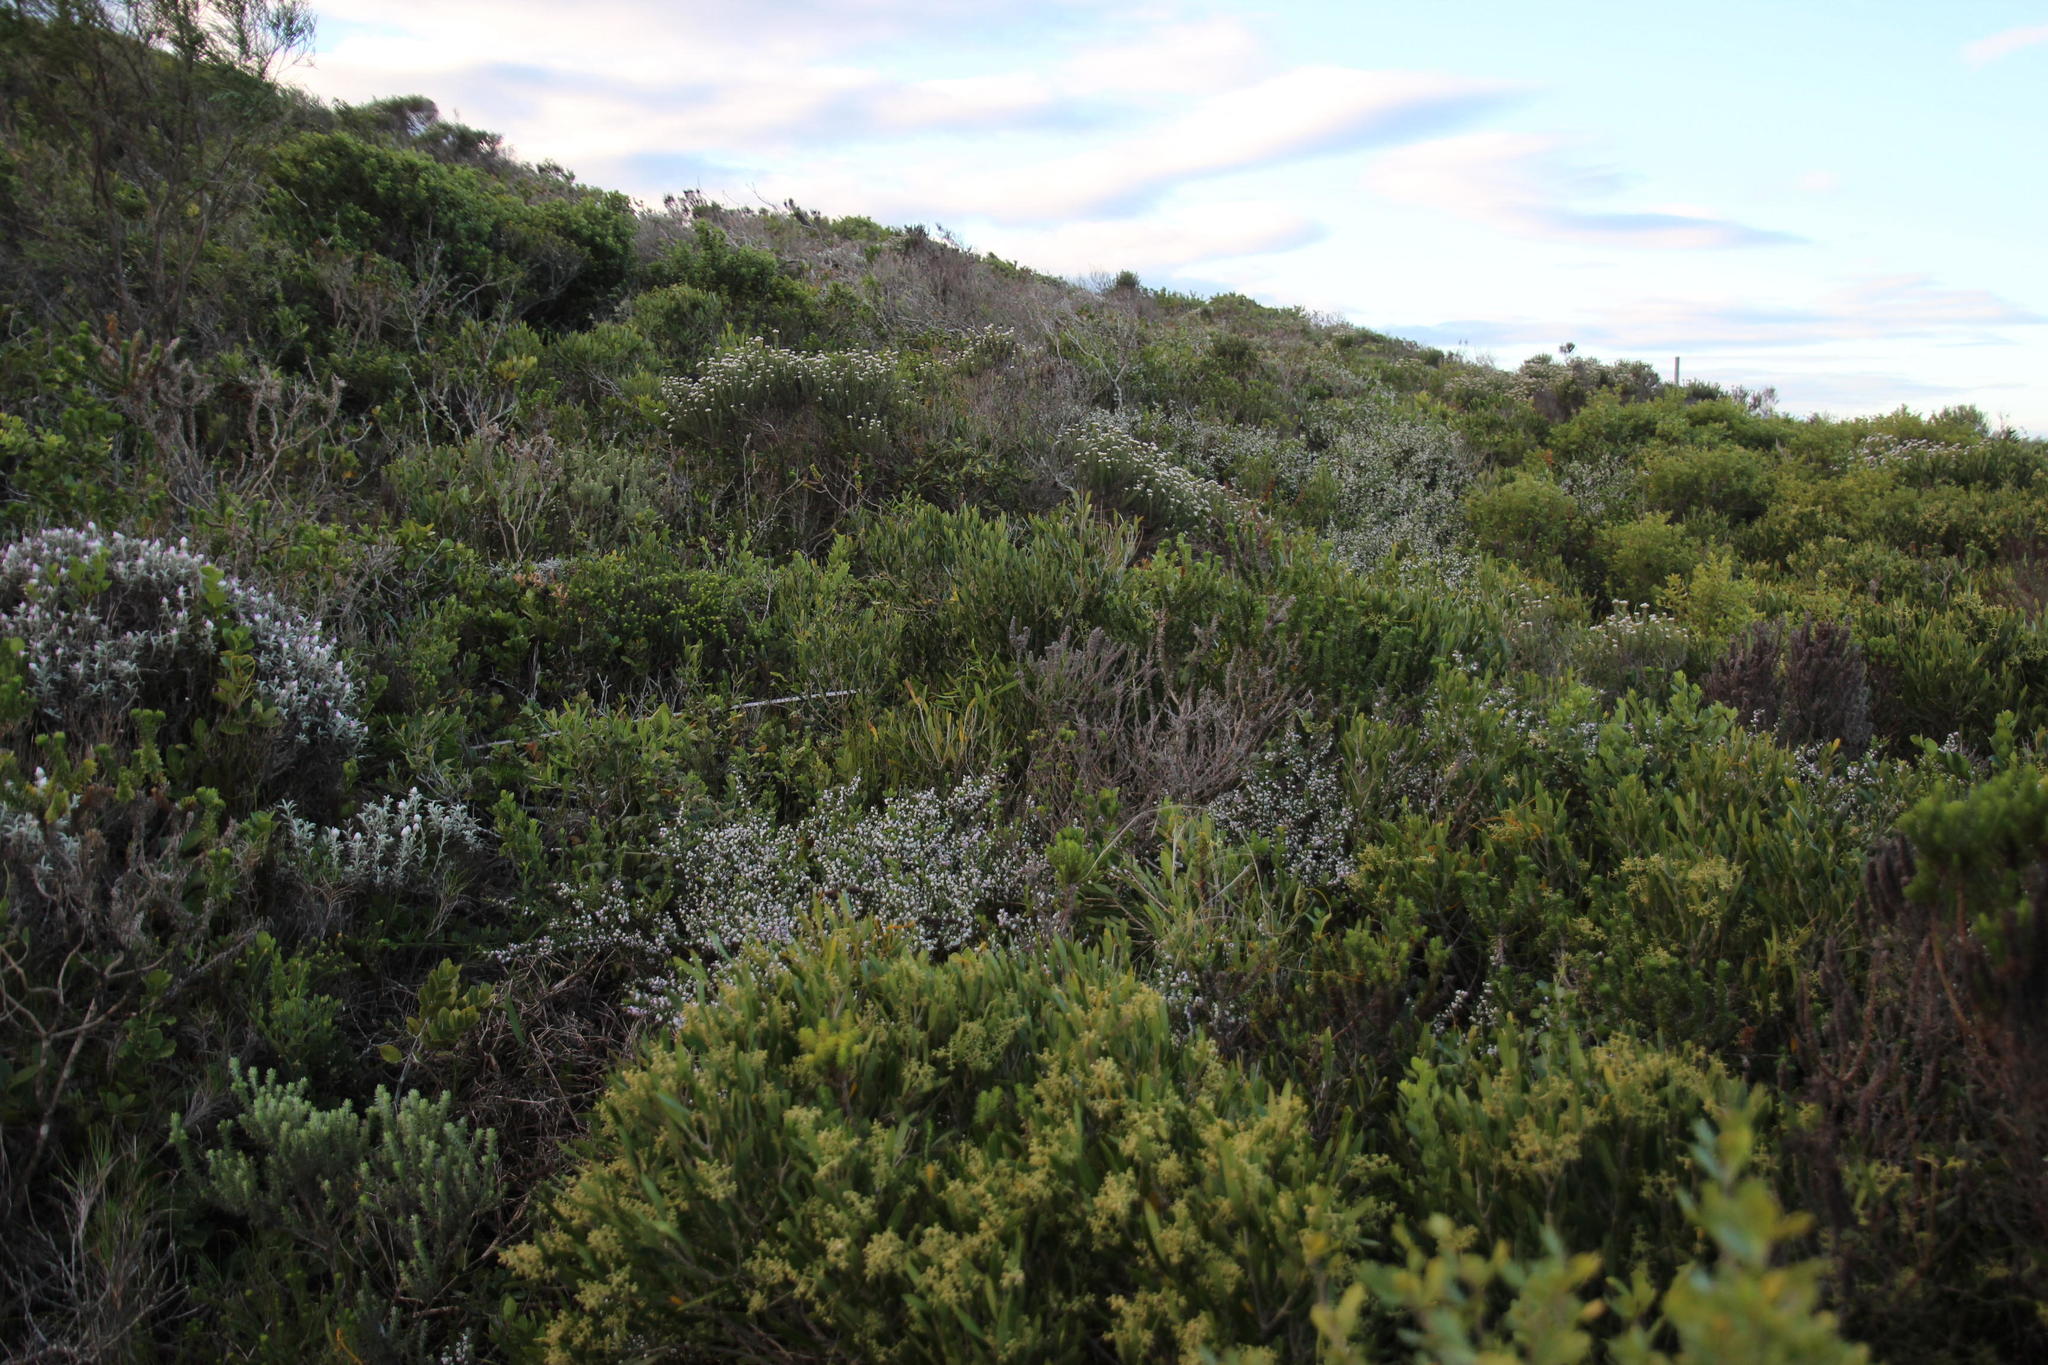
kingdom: Plantae
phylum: Tracheophyta
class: Magnoliopsida
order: Fabales
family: Polygalaceae
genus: Muraltia
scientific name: Muraltia spinosa
